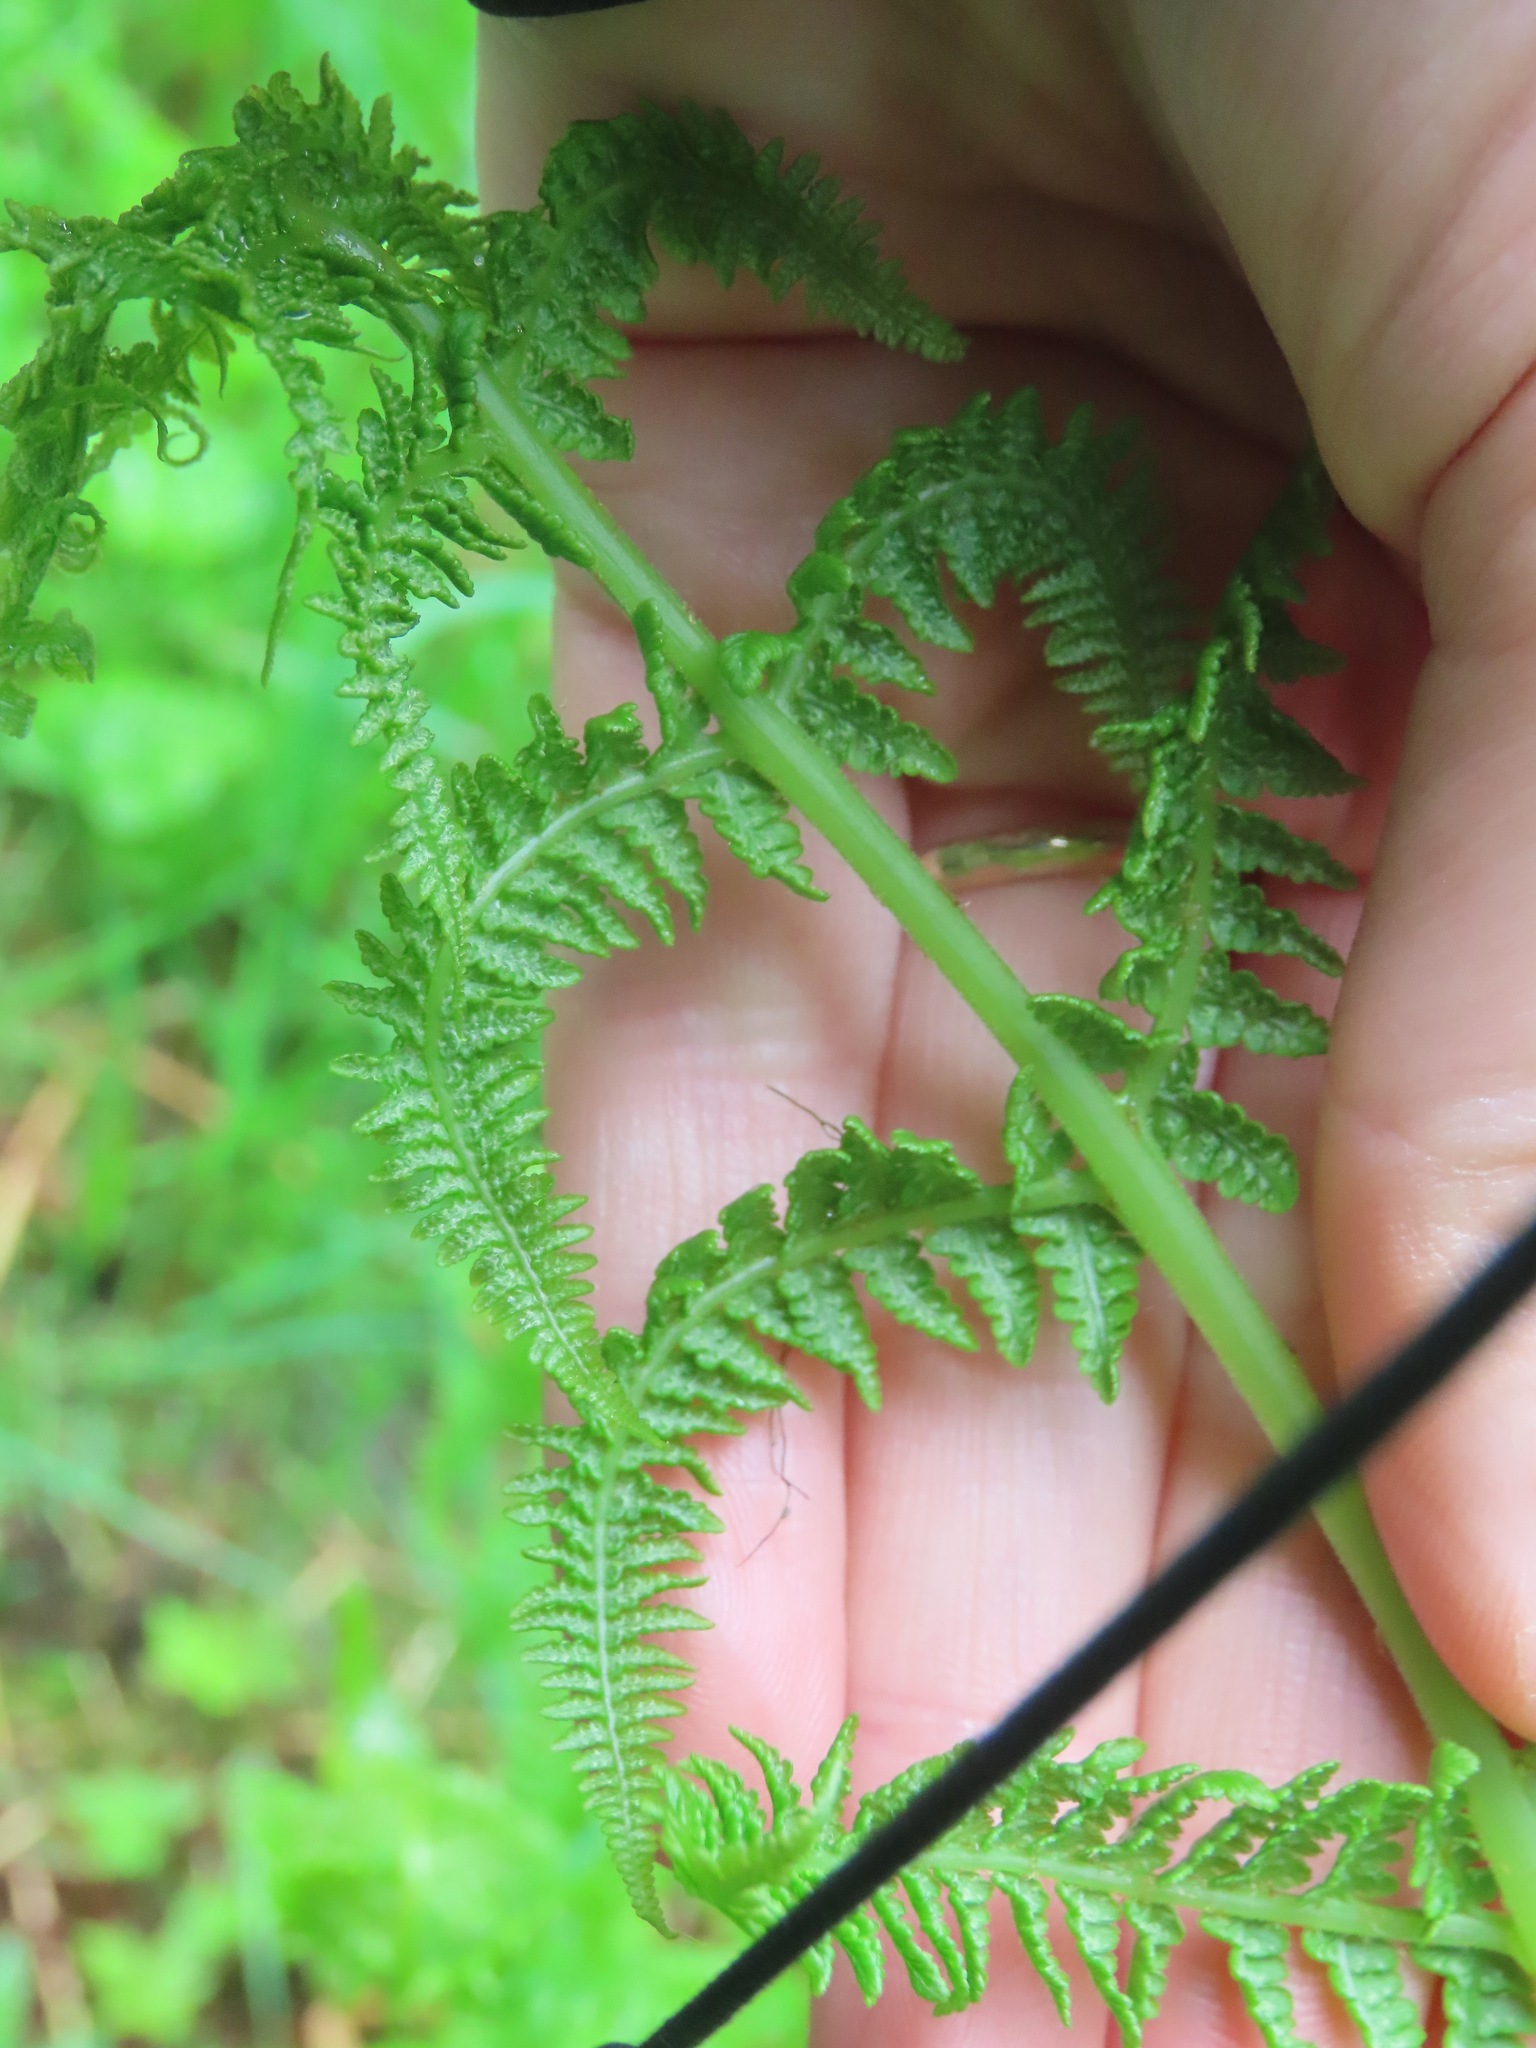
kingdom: Plantae
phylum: Tracheophyta
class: Polypodiopsida
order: Polypodiales
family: Athyriaceae
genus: Athyrium
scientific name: Athyrium filix-femina
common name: Lady fern
